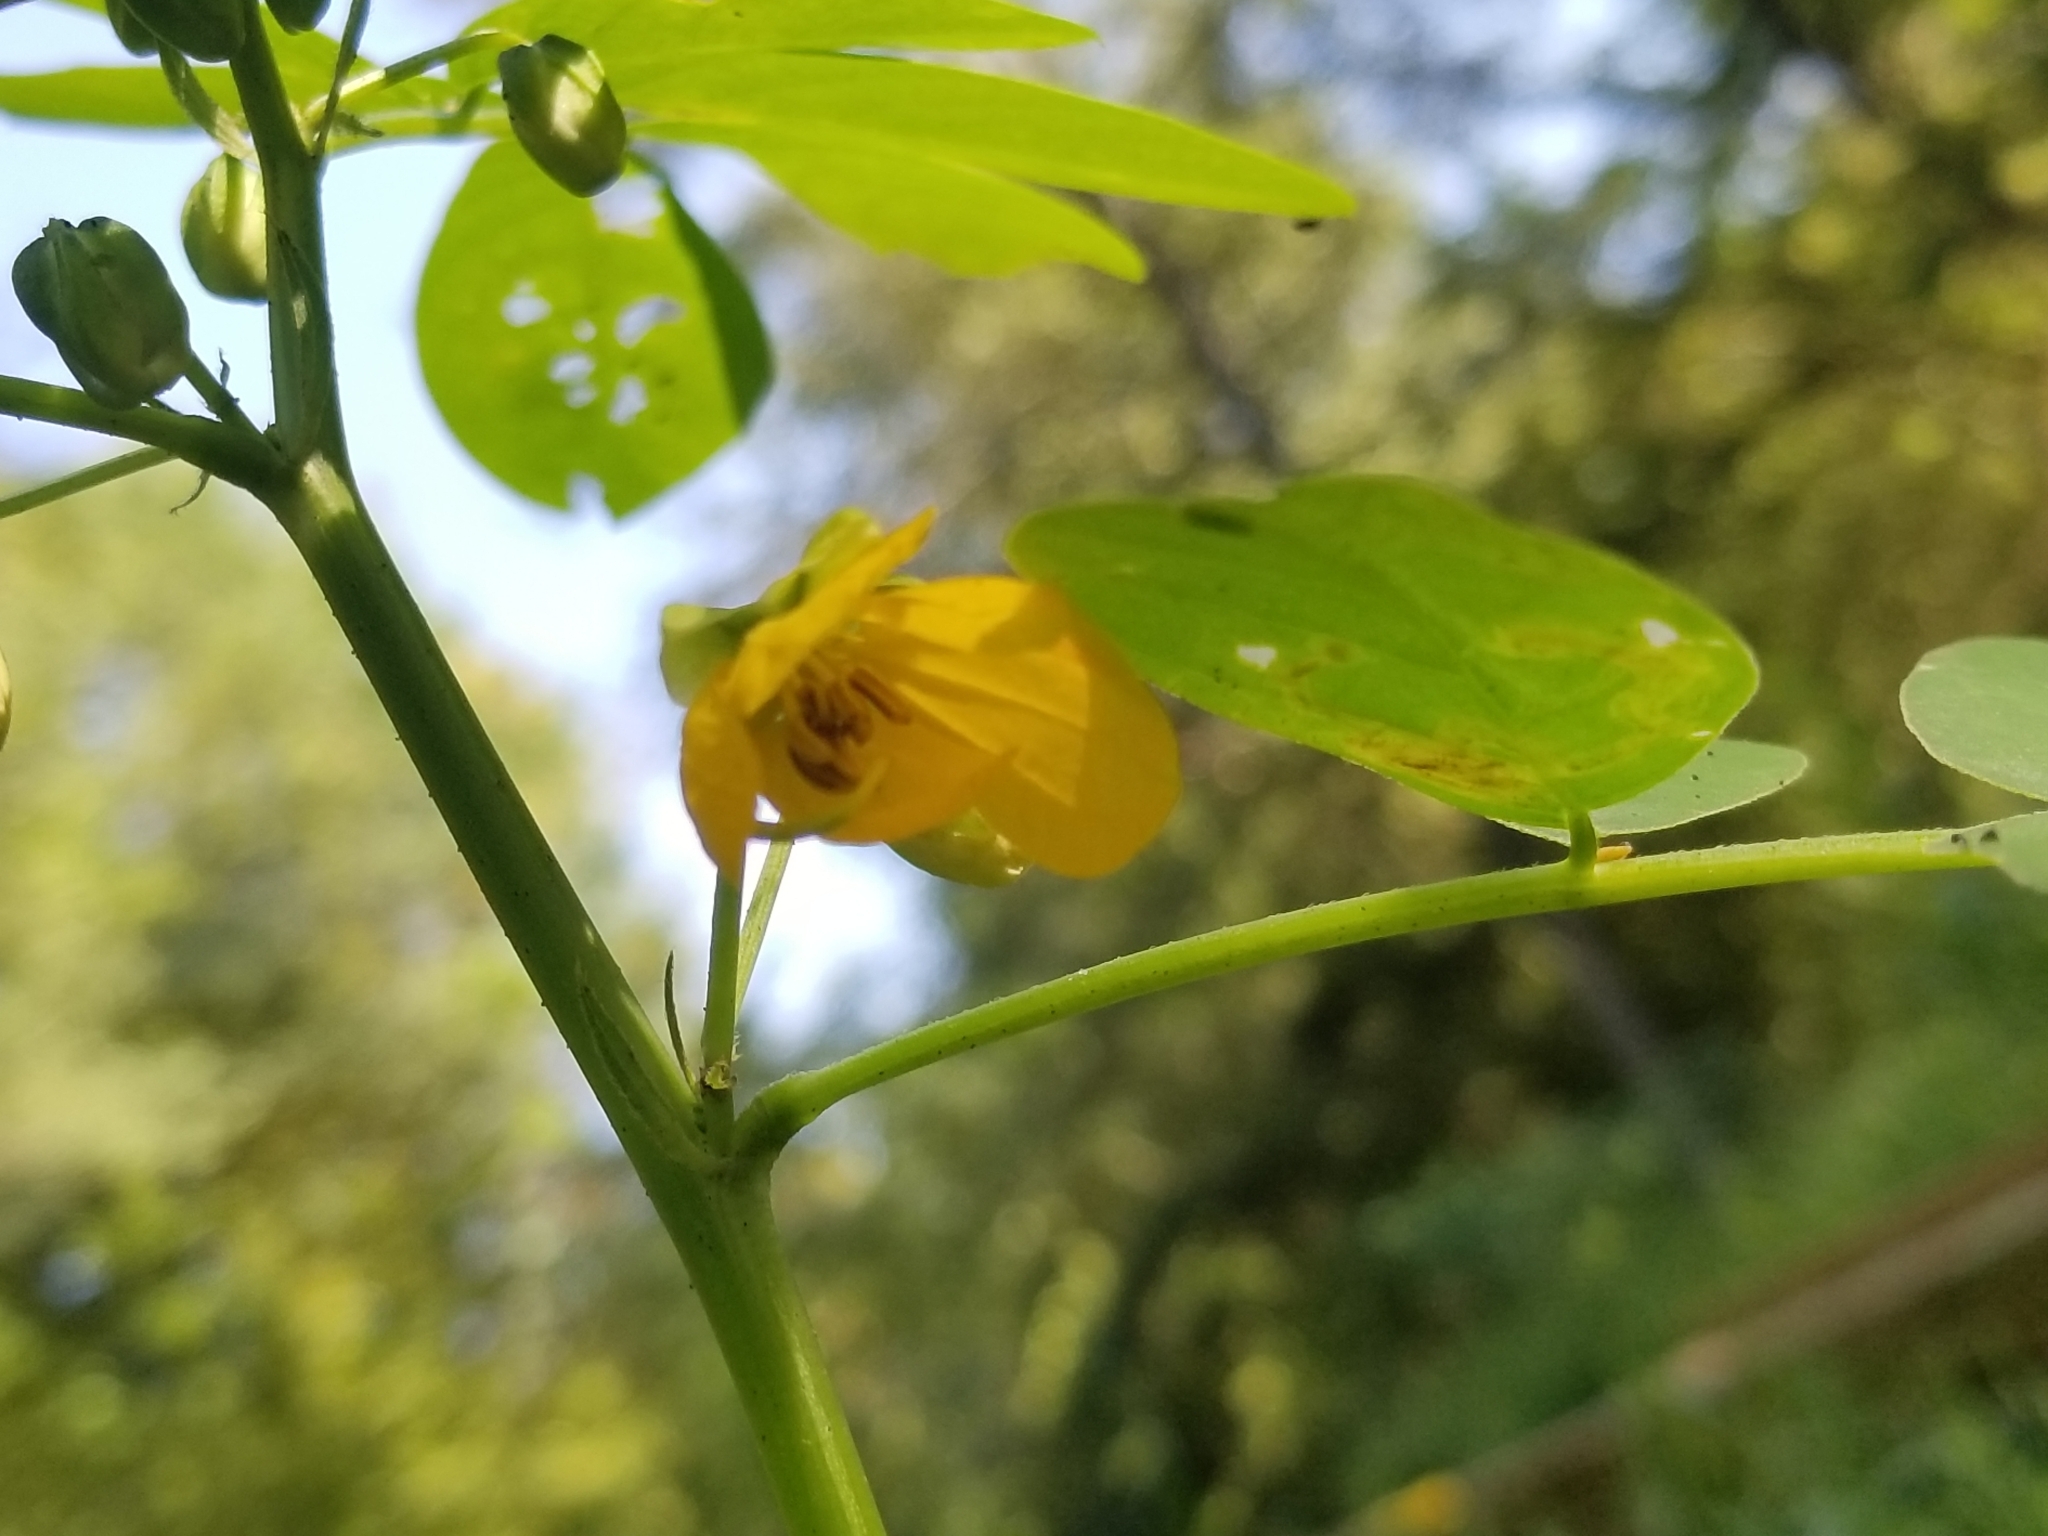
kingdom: Plantae
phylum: Tracheophyta
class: Magnoliopsida
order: Fabales
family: Fabaceae
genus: Senna
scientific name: Senna obtusifolia
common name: Java-bean
